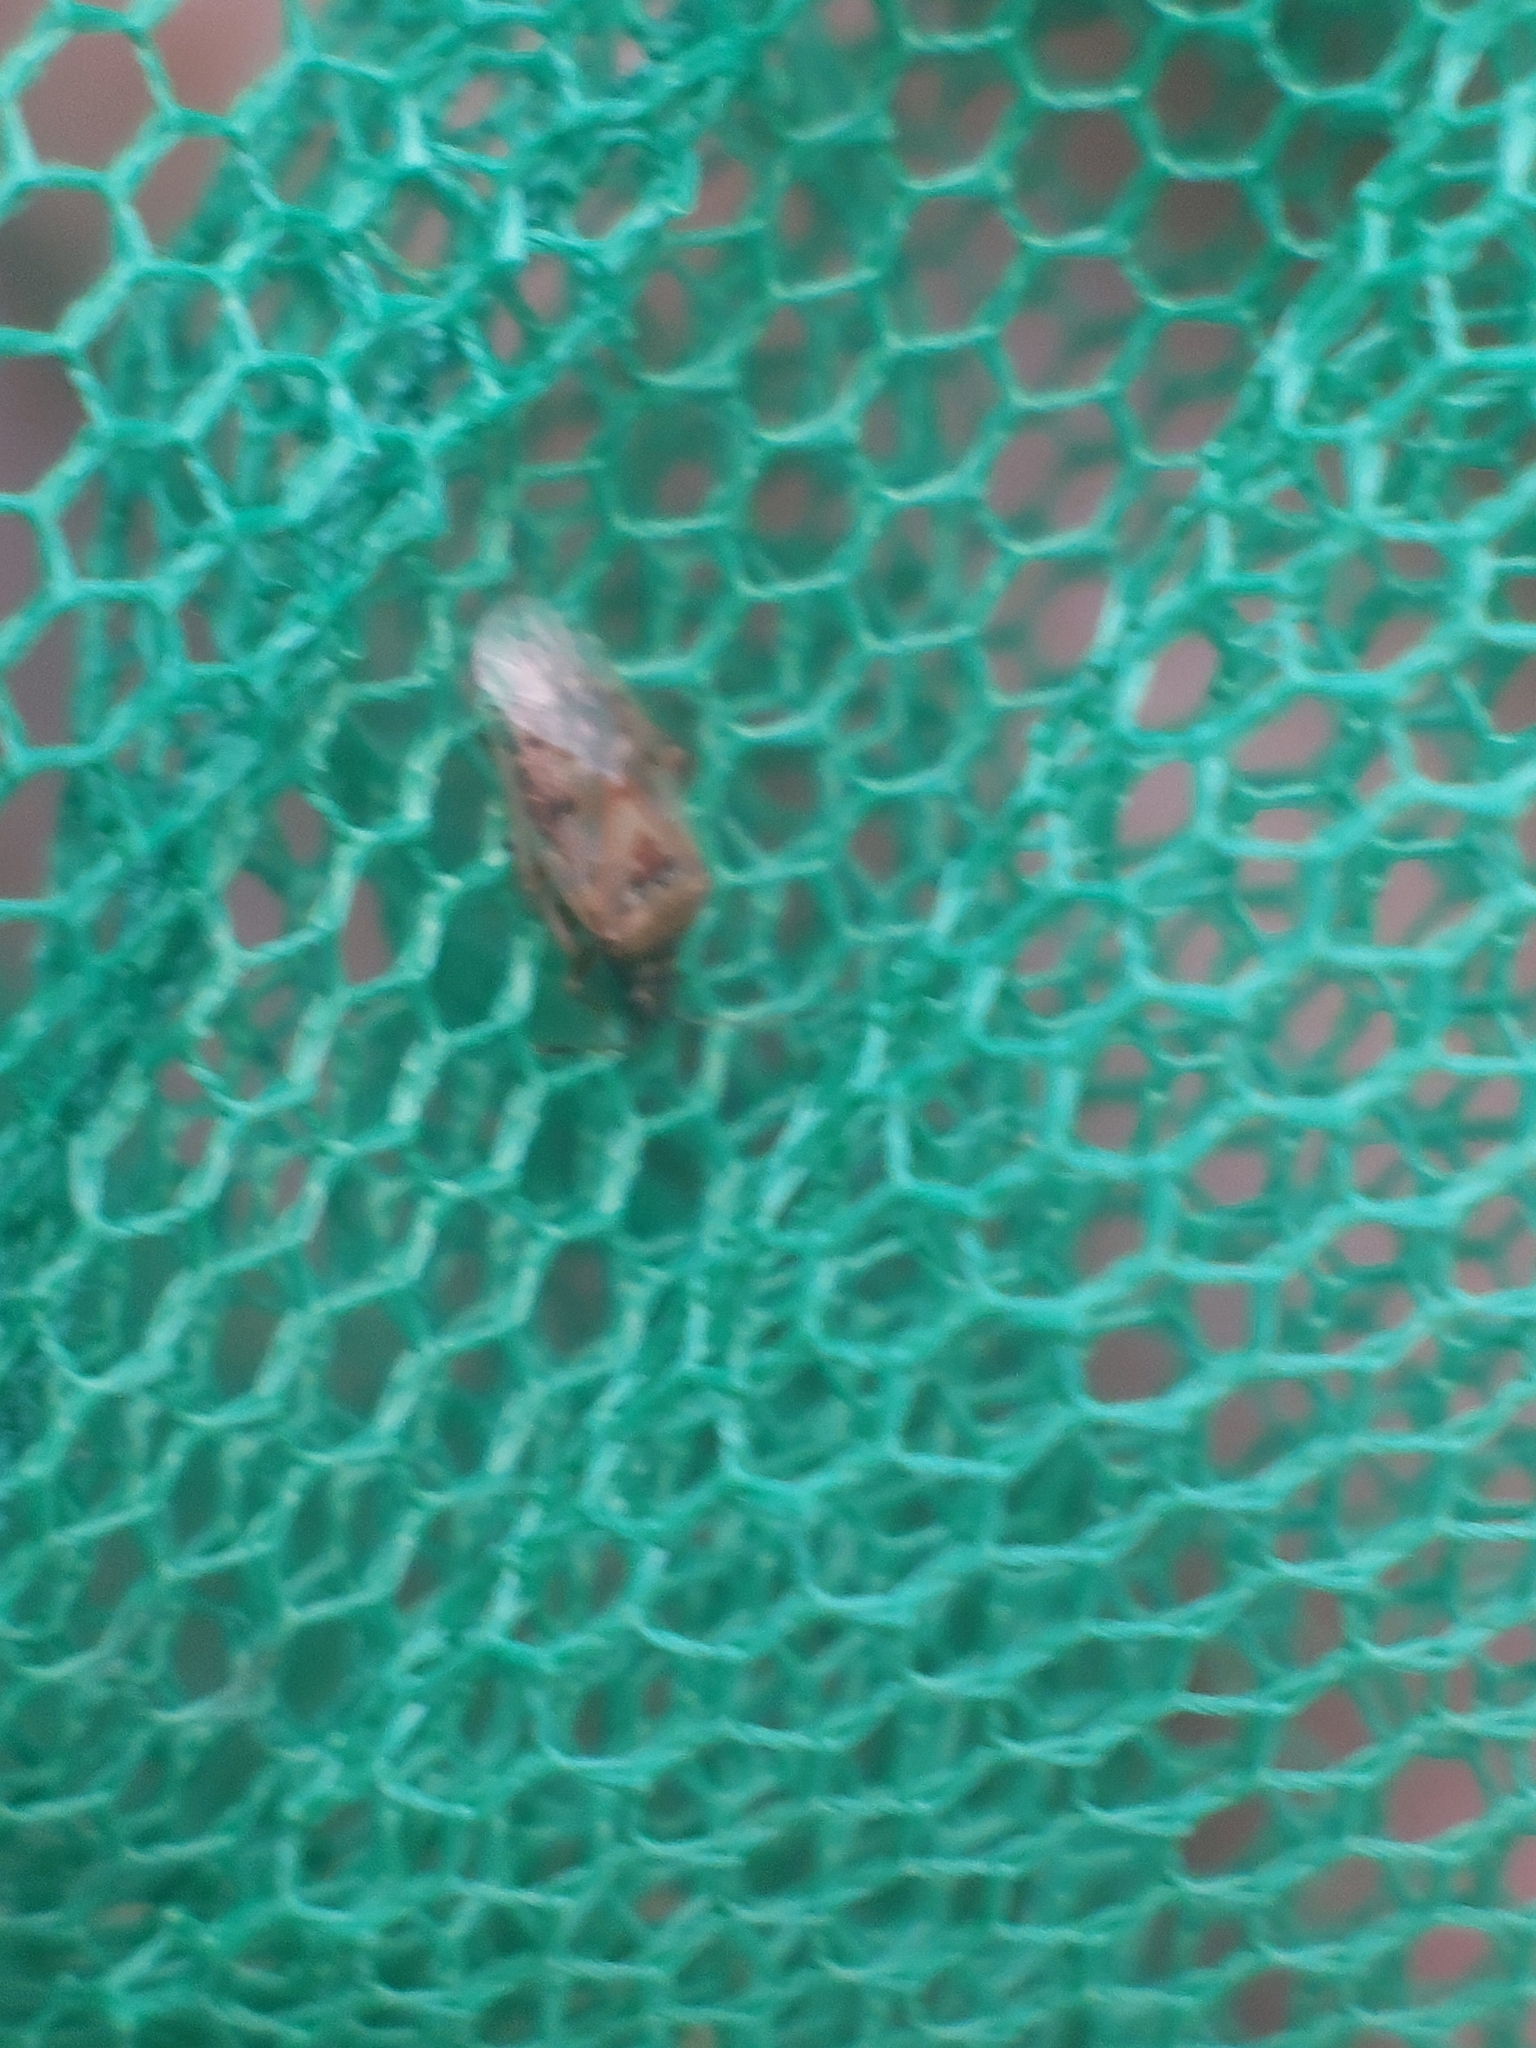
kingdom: Animalia
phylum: Arthropoda
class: Insecta
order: Hemiptera
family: Lygaeidae
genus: Kleidocerys
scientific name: Kleidocerys resedae
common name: Birch catkin bug
